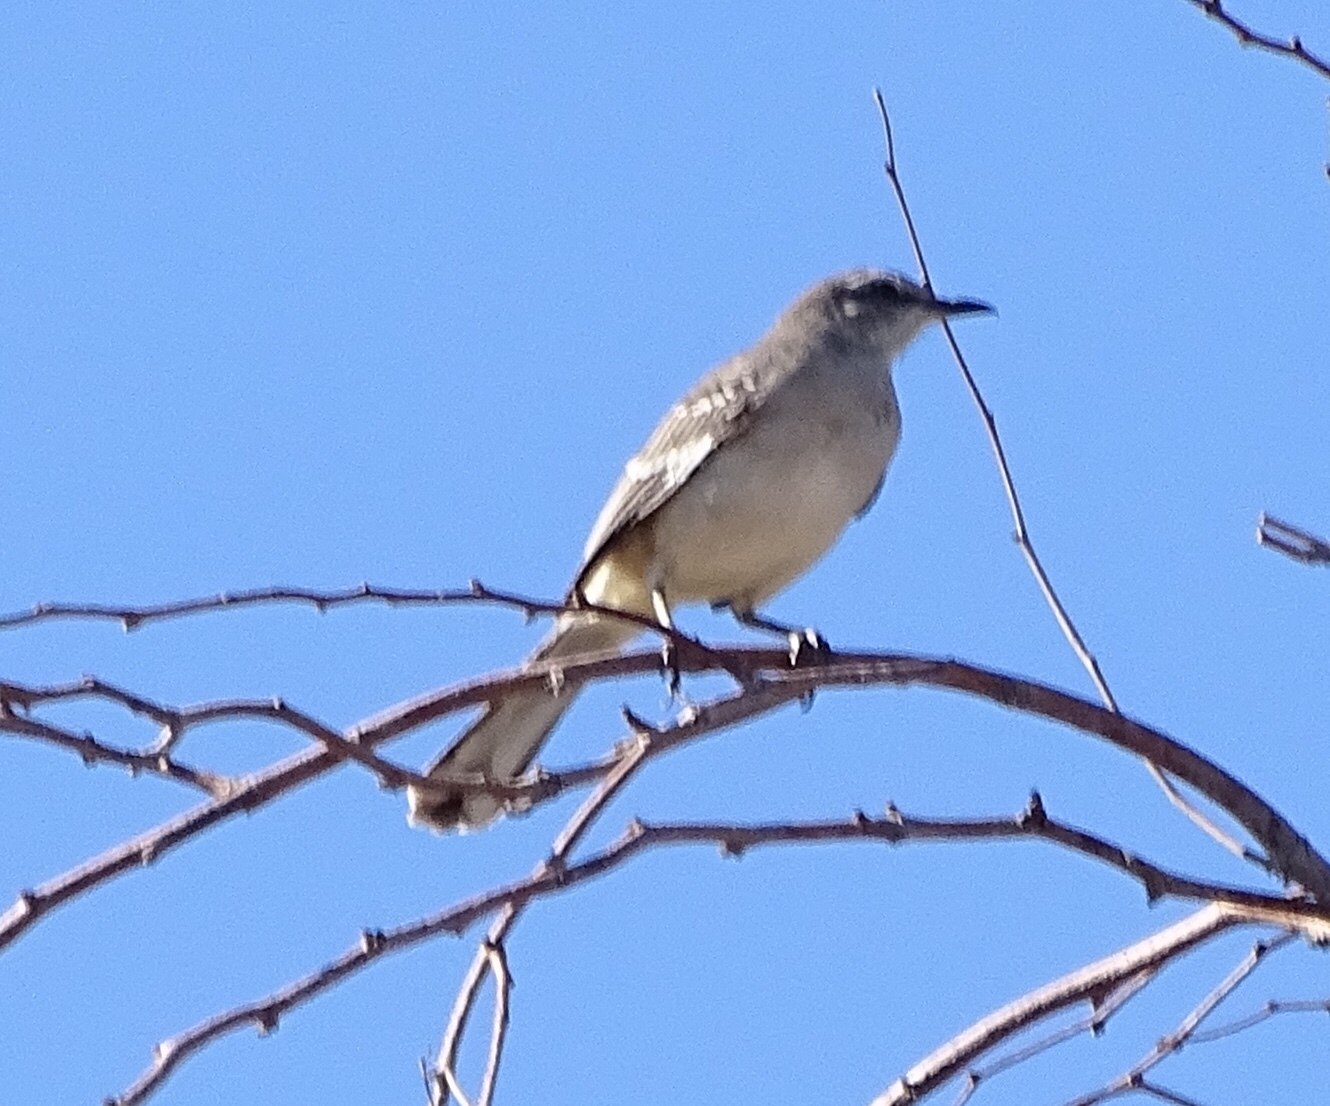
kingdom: Animalia
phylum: Chordata
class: Aves
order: Passeriformes
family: Mimidae
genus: Mimus
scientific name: Mimus polyglottos
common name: Northern mockingbird
